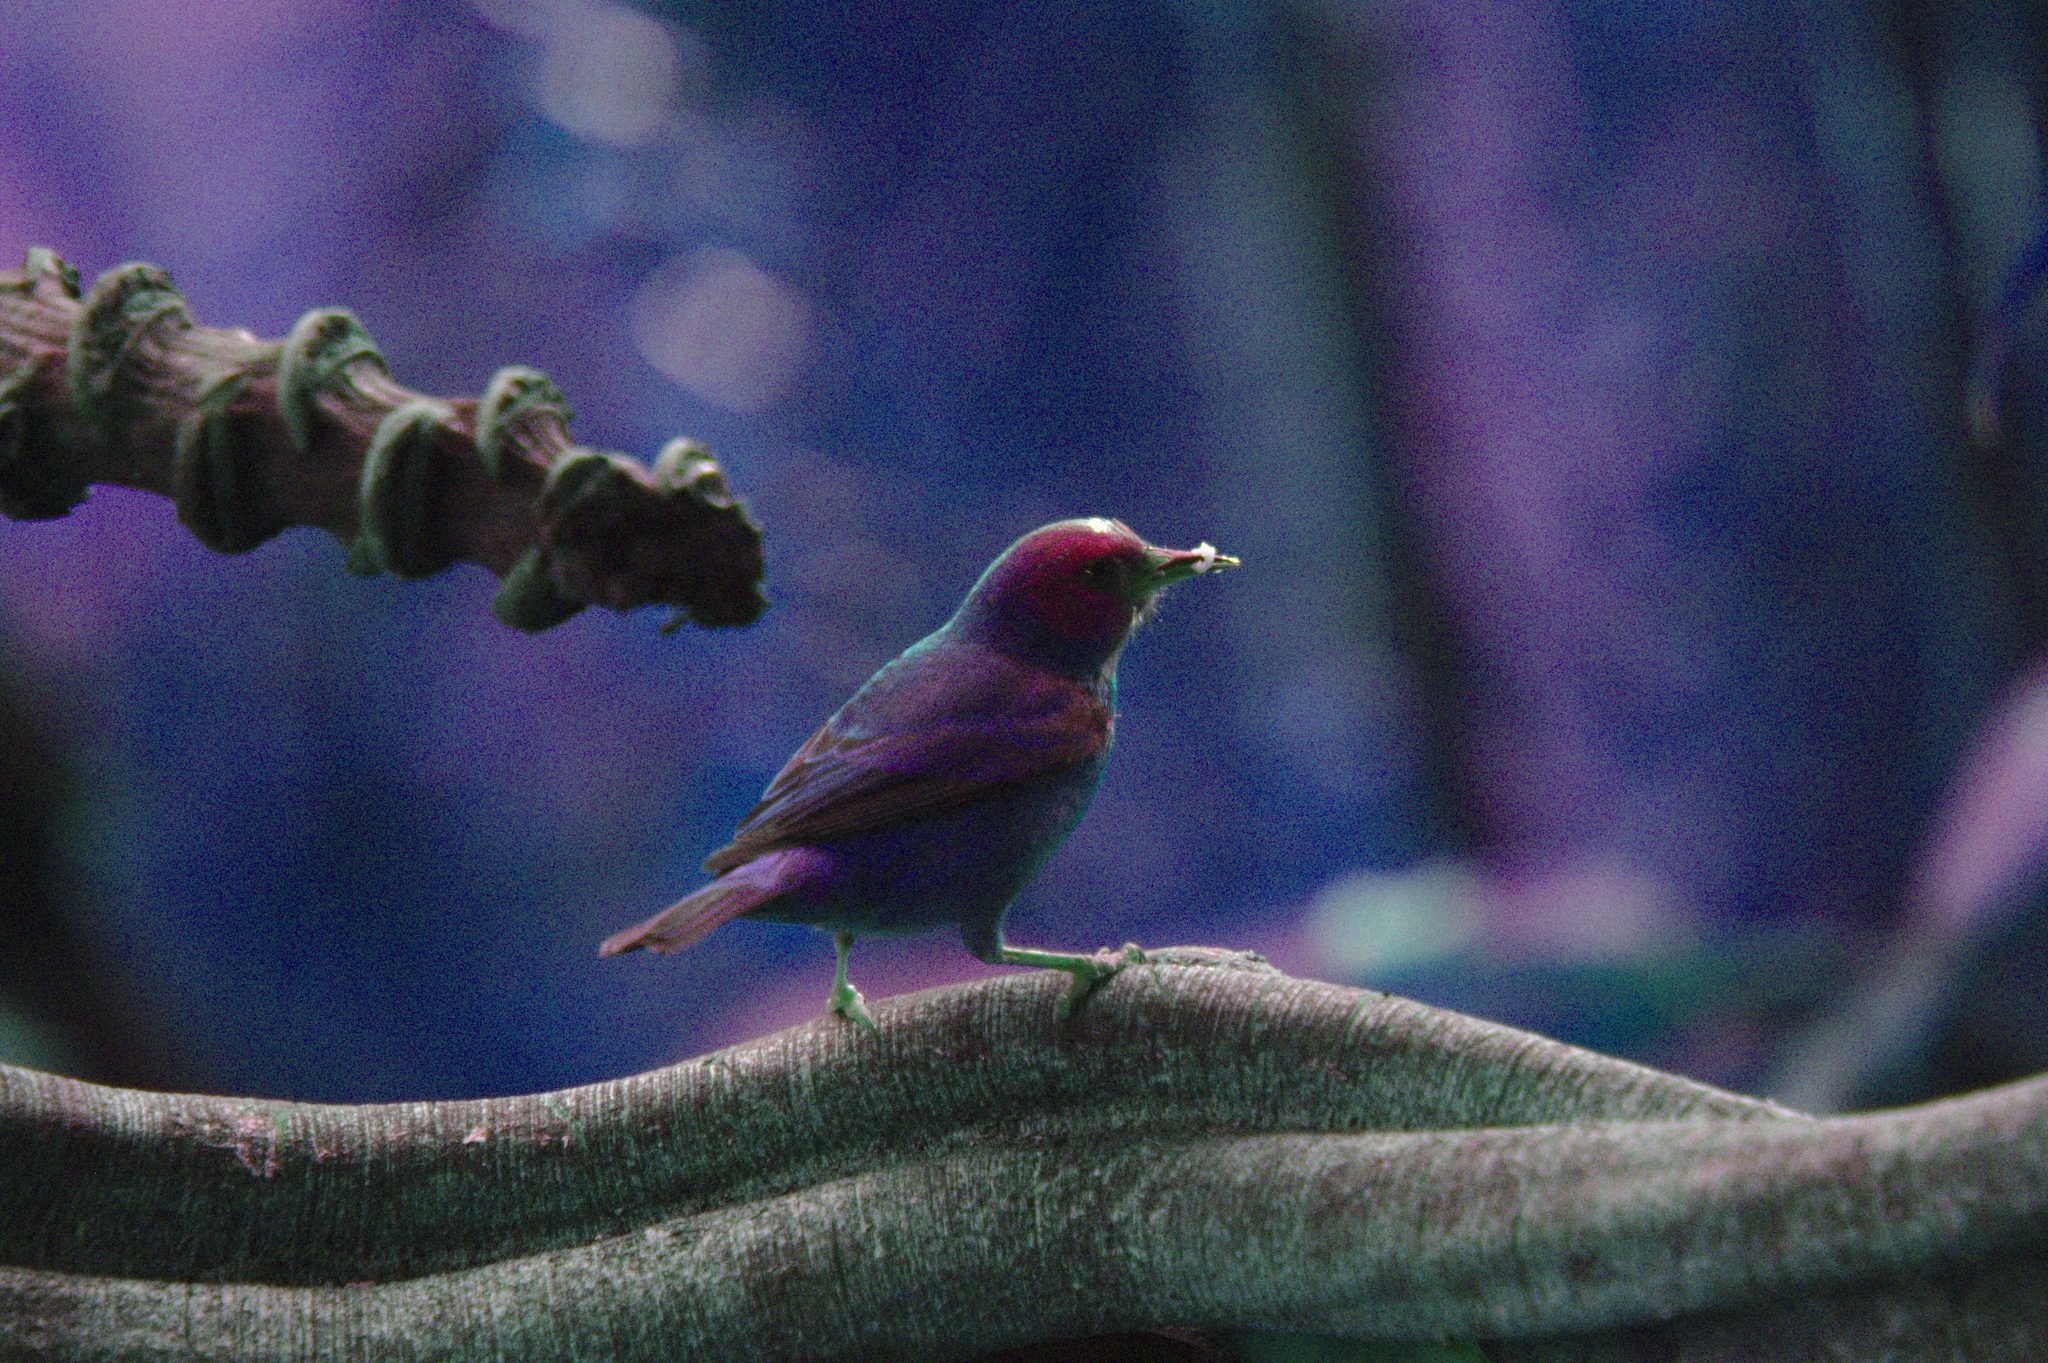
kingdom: Animalia
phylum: Chordata
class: Aves
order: Passeriformes
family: Thraupidae
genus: Dacnis
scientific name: Dacnis cayana
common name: Blue dacnis
